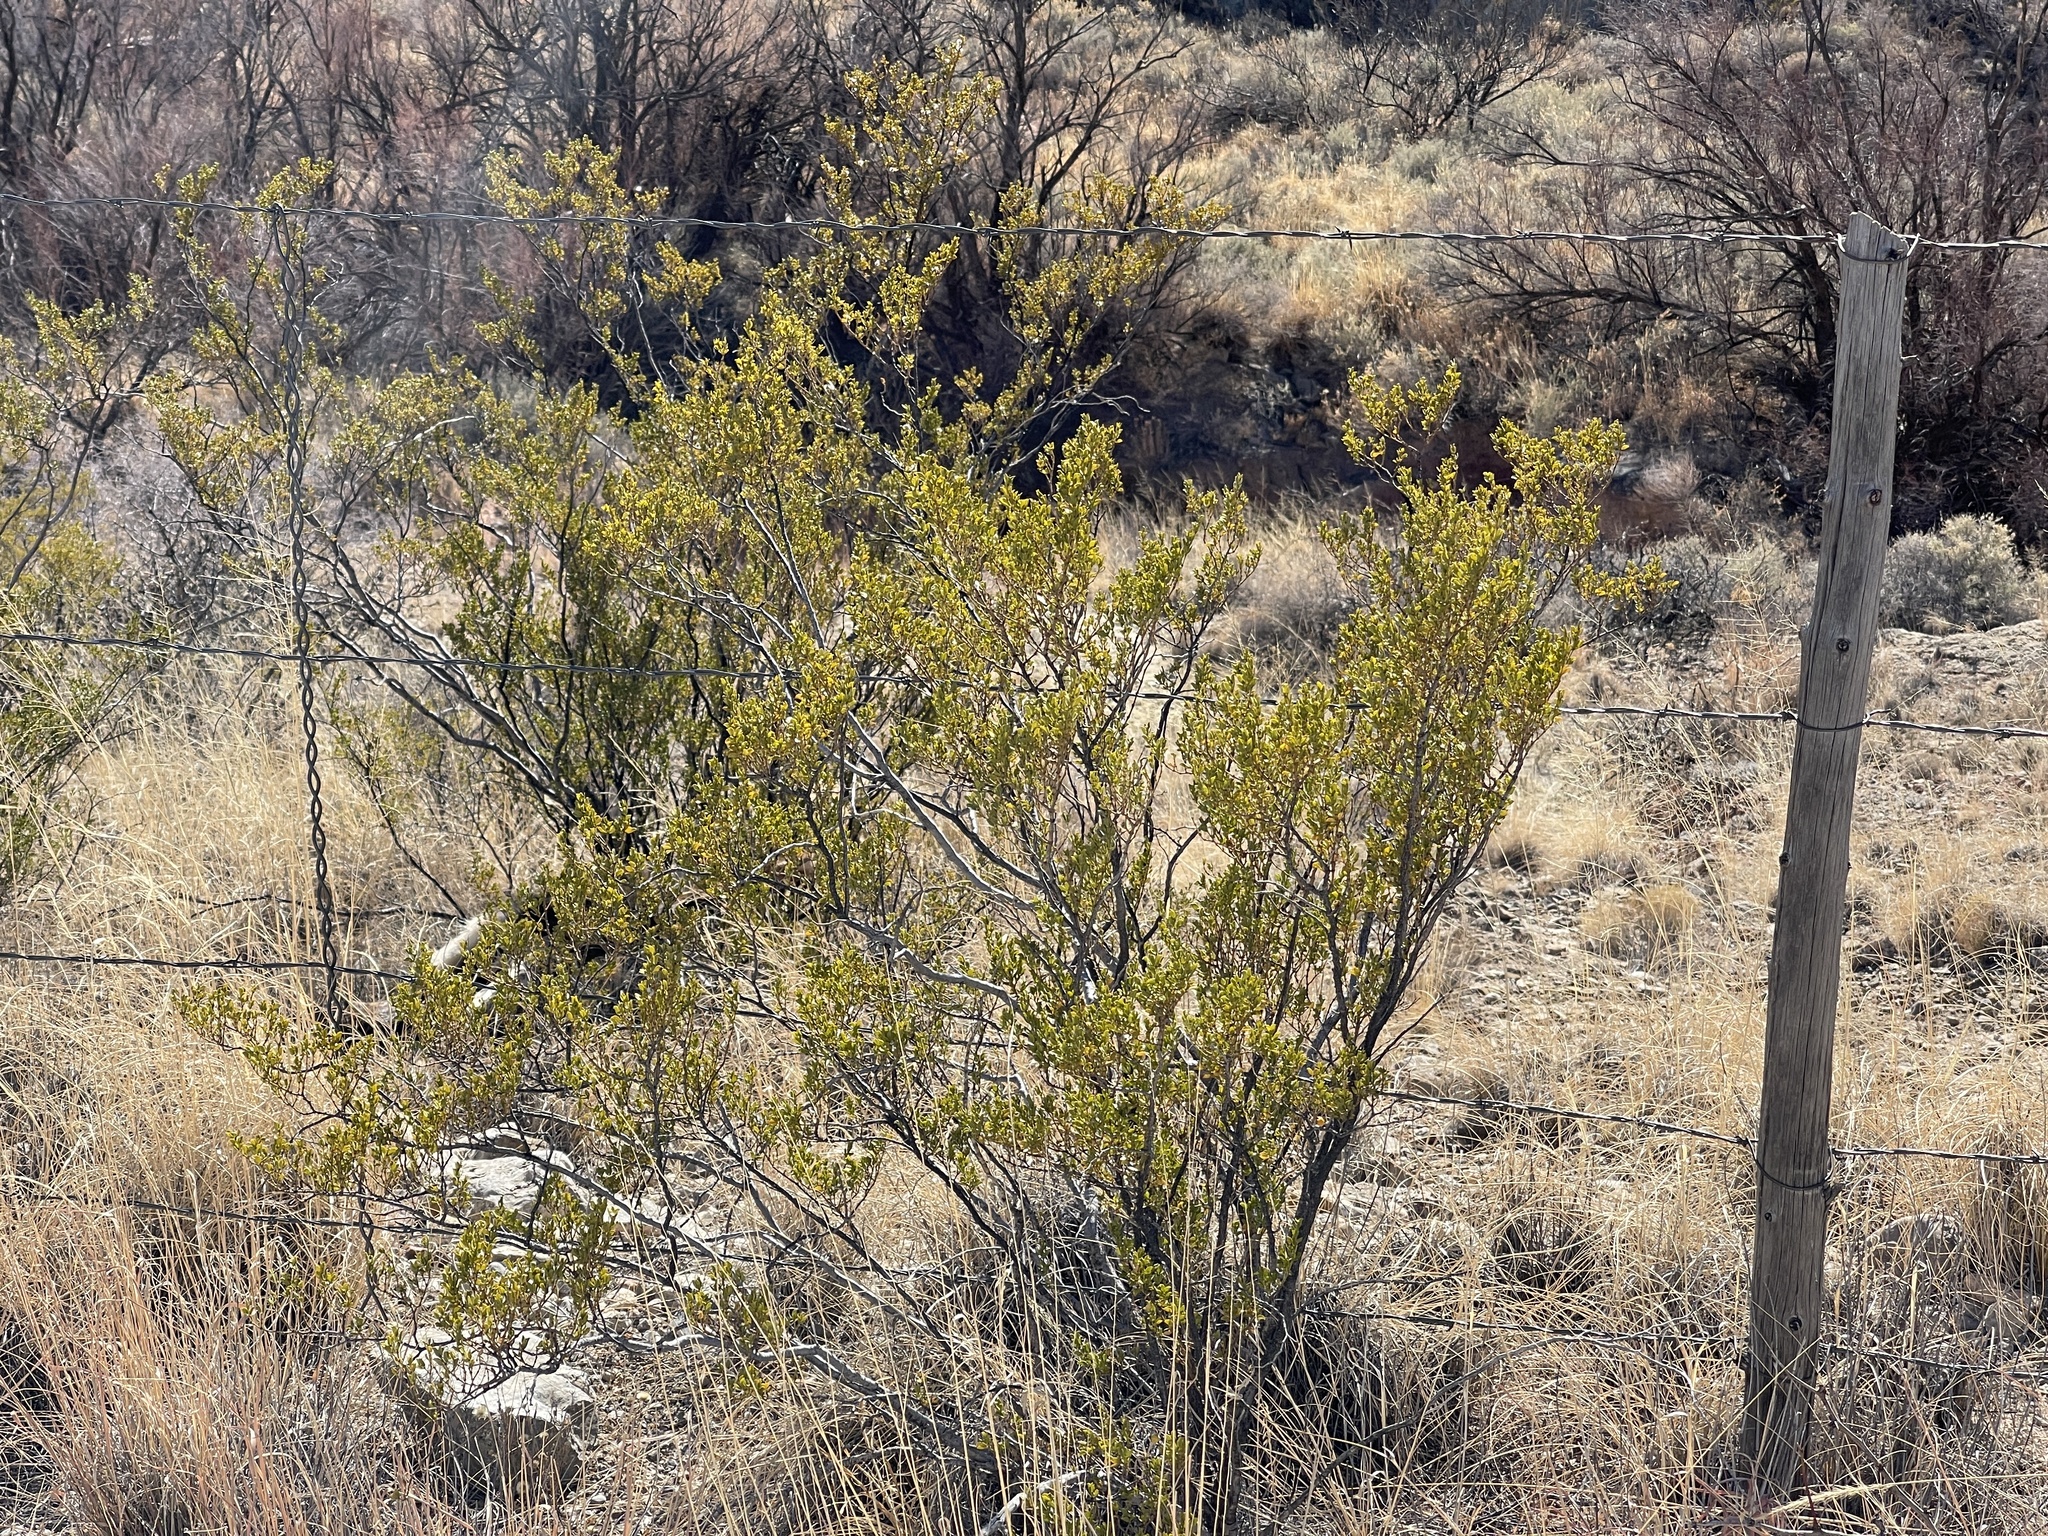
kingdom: Plantae
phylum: Tracheophyta
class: Magnoliopsida
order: Zygophyllales
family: Zygophyllaceae
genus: Larrea
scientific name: Larrea tridentata
